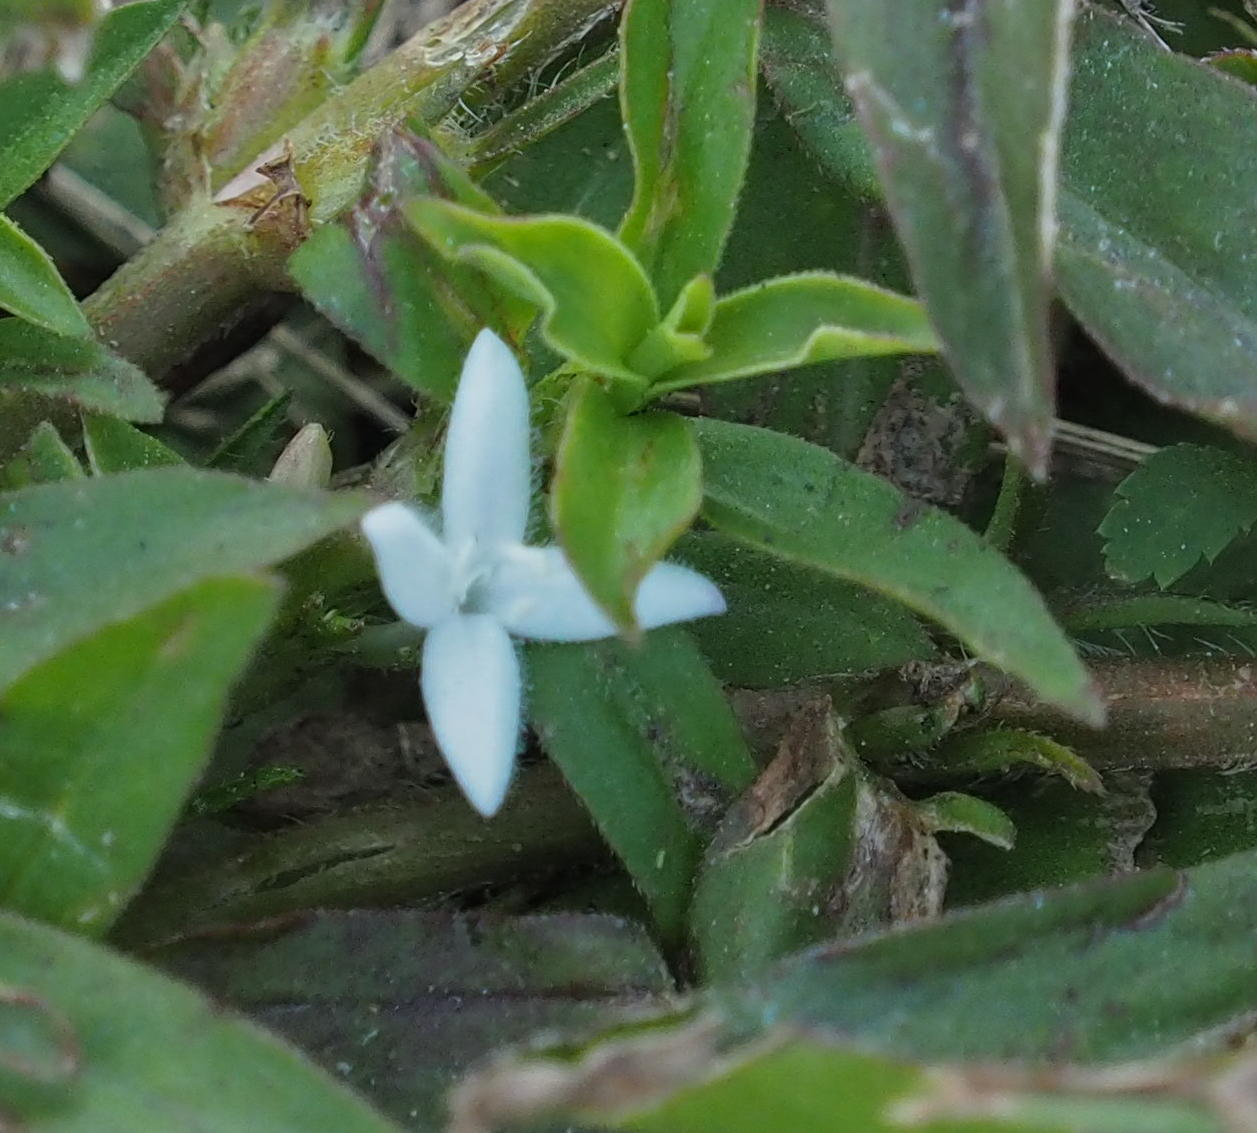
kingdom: Plantae
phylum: Tracheophyta
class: Magnoliopsida
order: Gentianales
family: Rubiaceae
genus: Diodia
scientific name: Diodia virginiana
